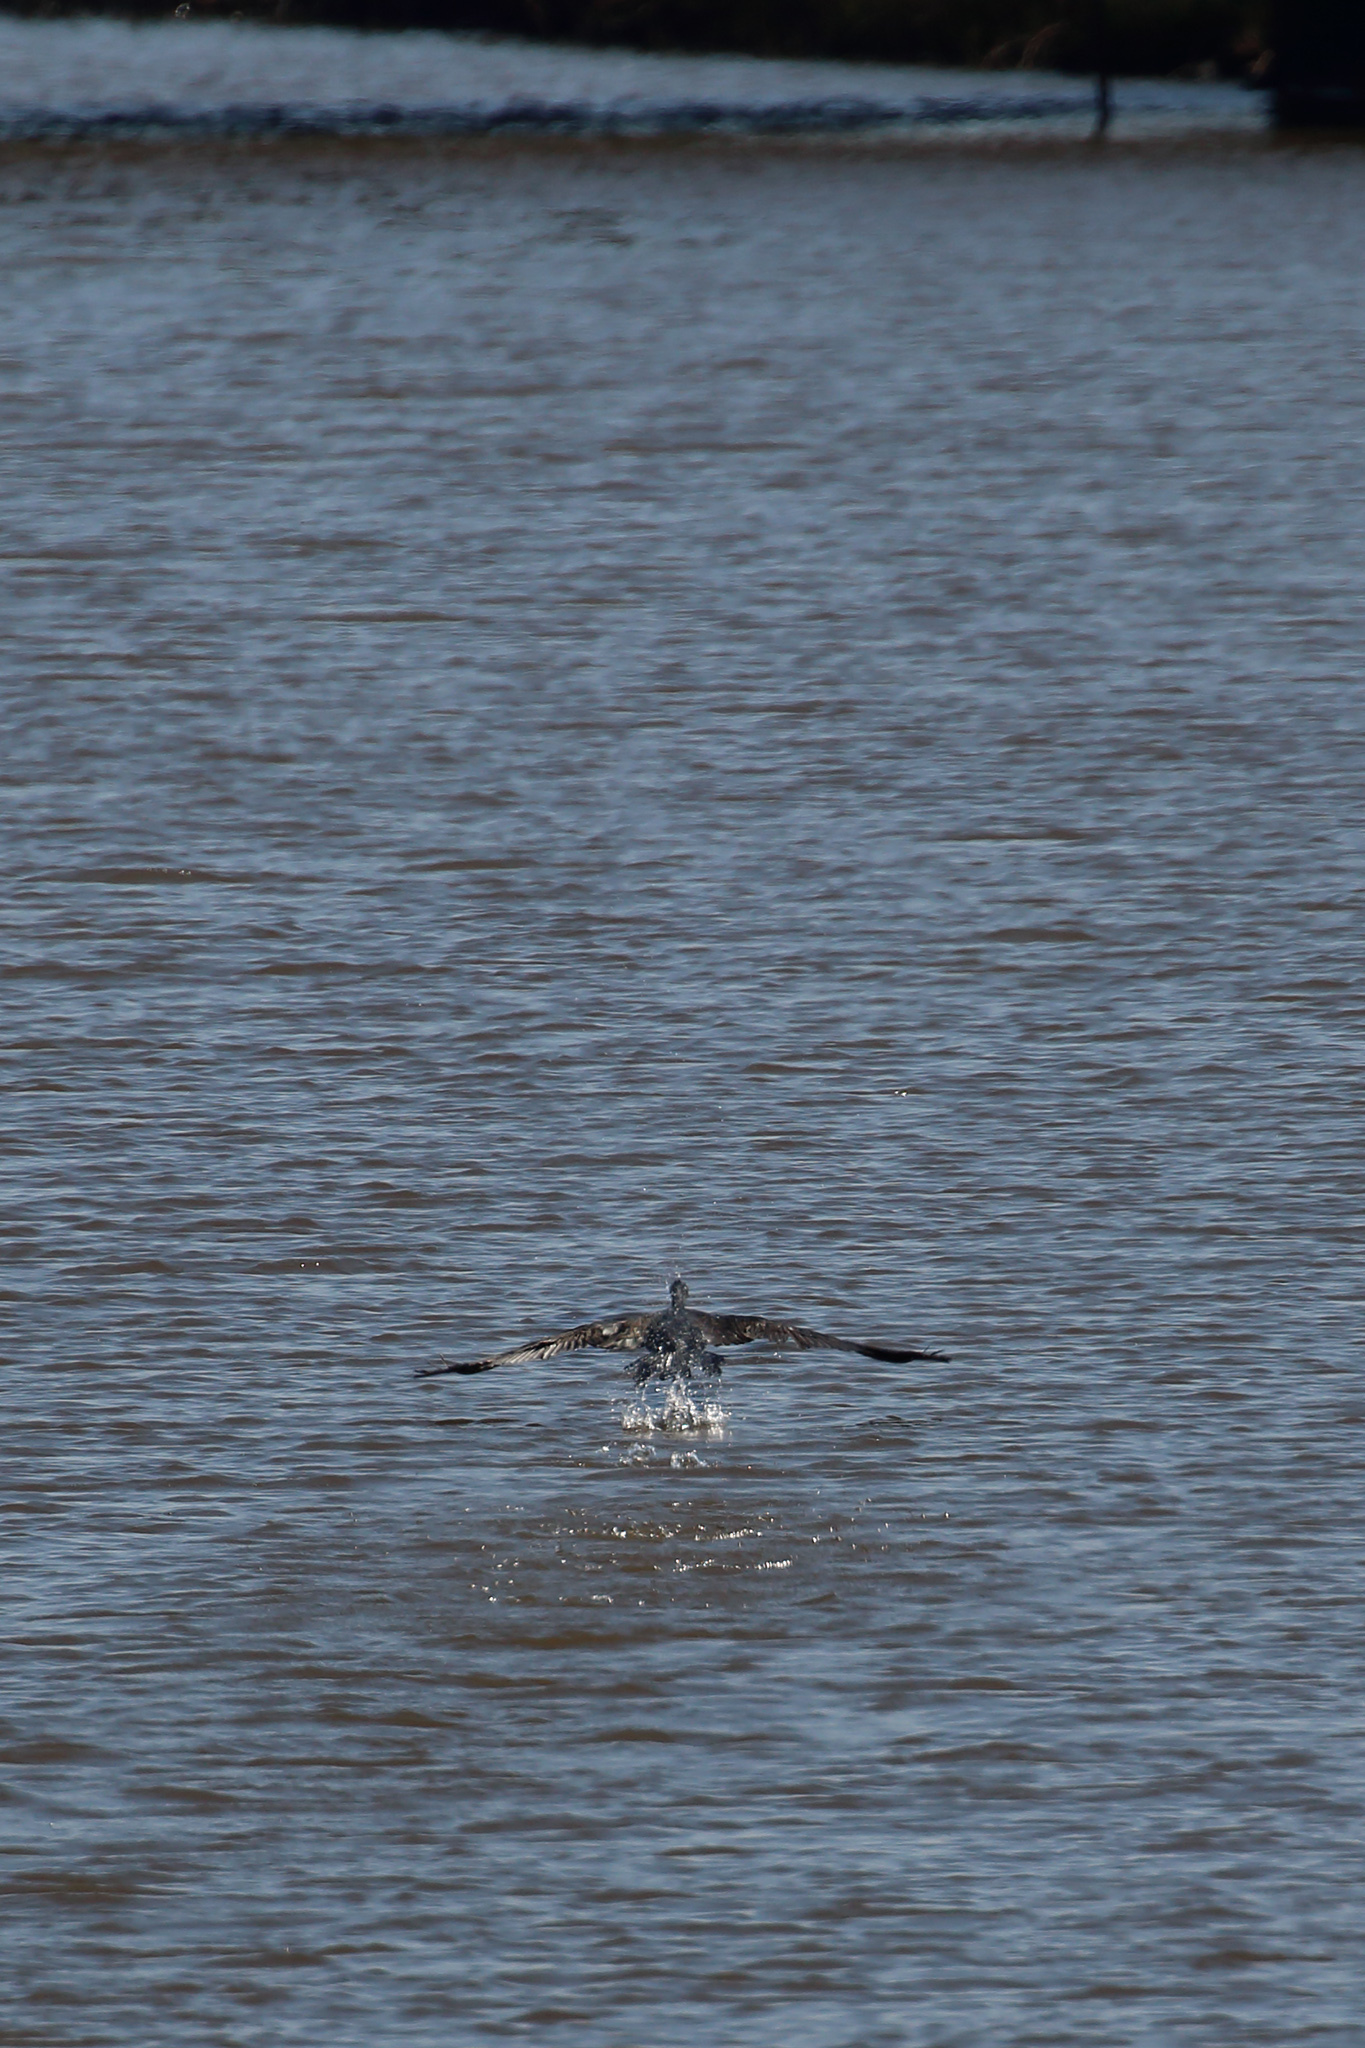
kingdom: Animalia
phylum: Chordata
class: Aves
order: Suliformes
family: Phalacrocoracidae
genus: Phalacrocorax
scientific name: Phalacrocorax carbo
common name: Great cormorant
